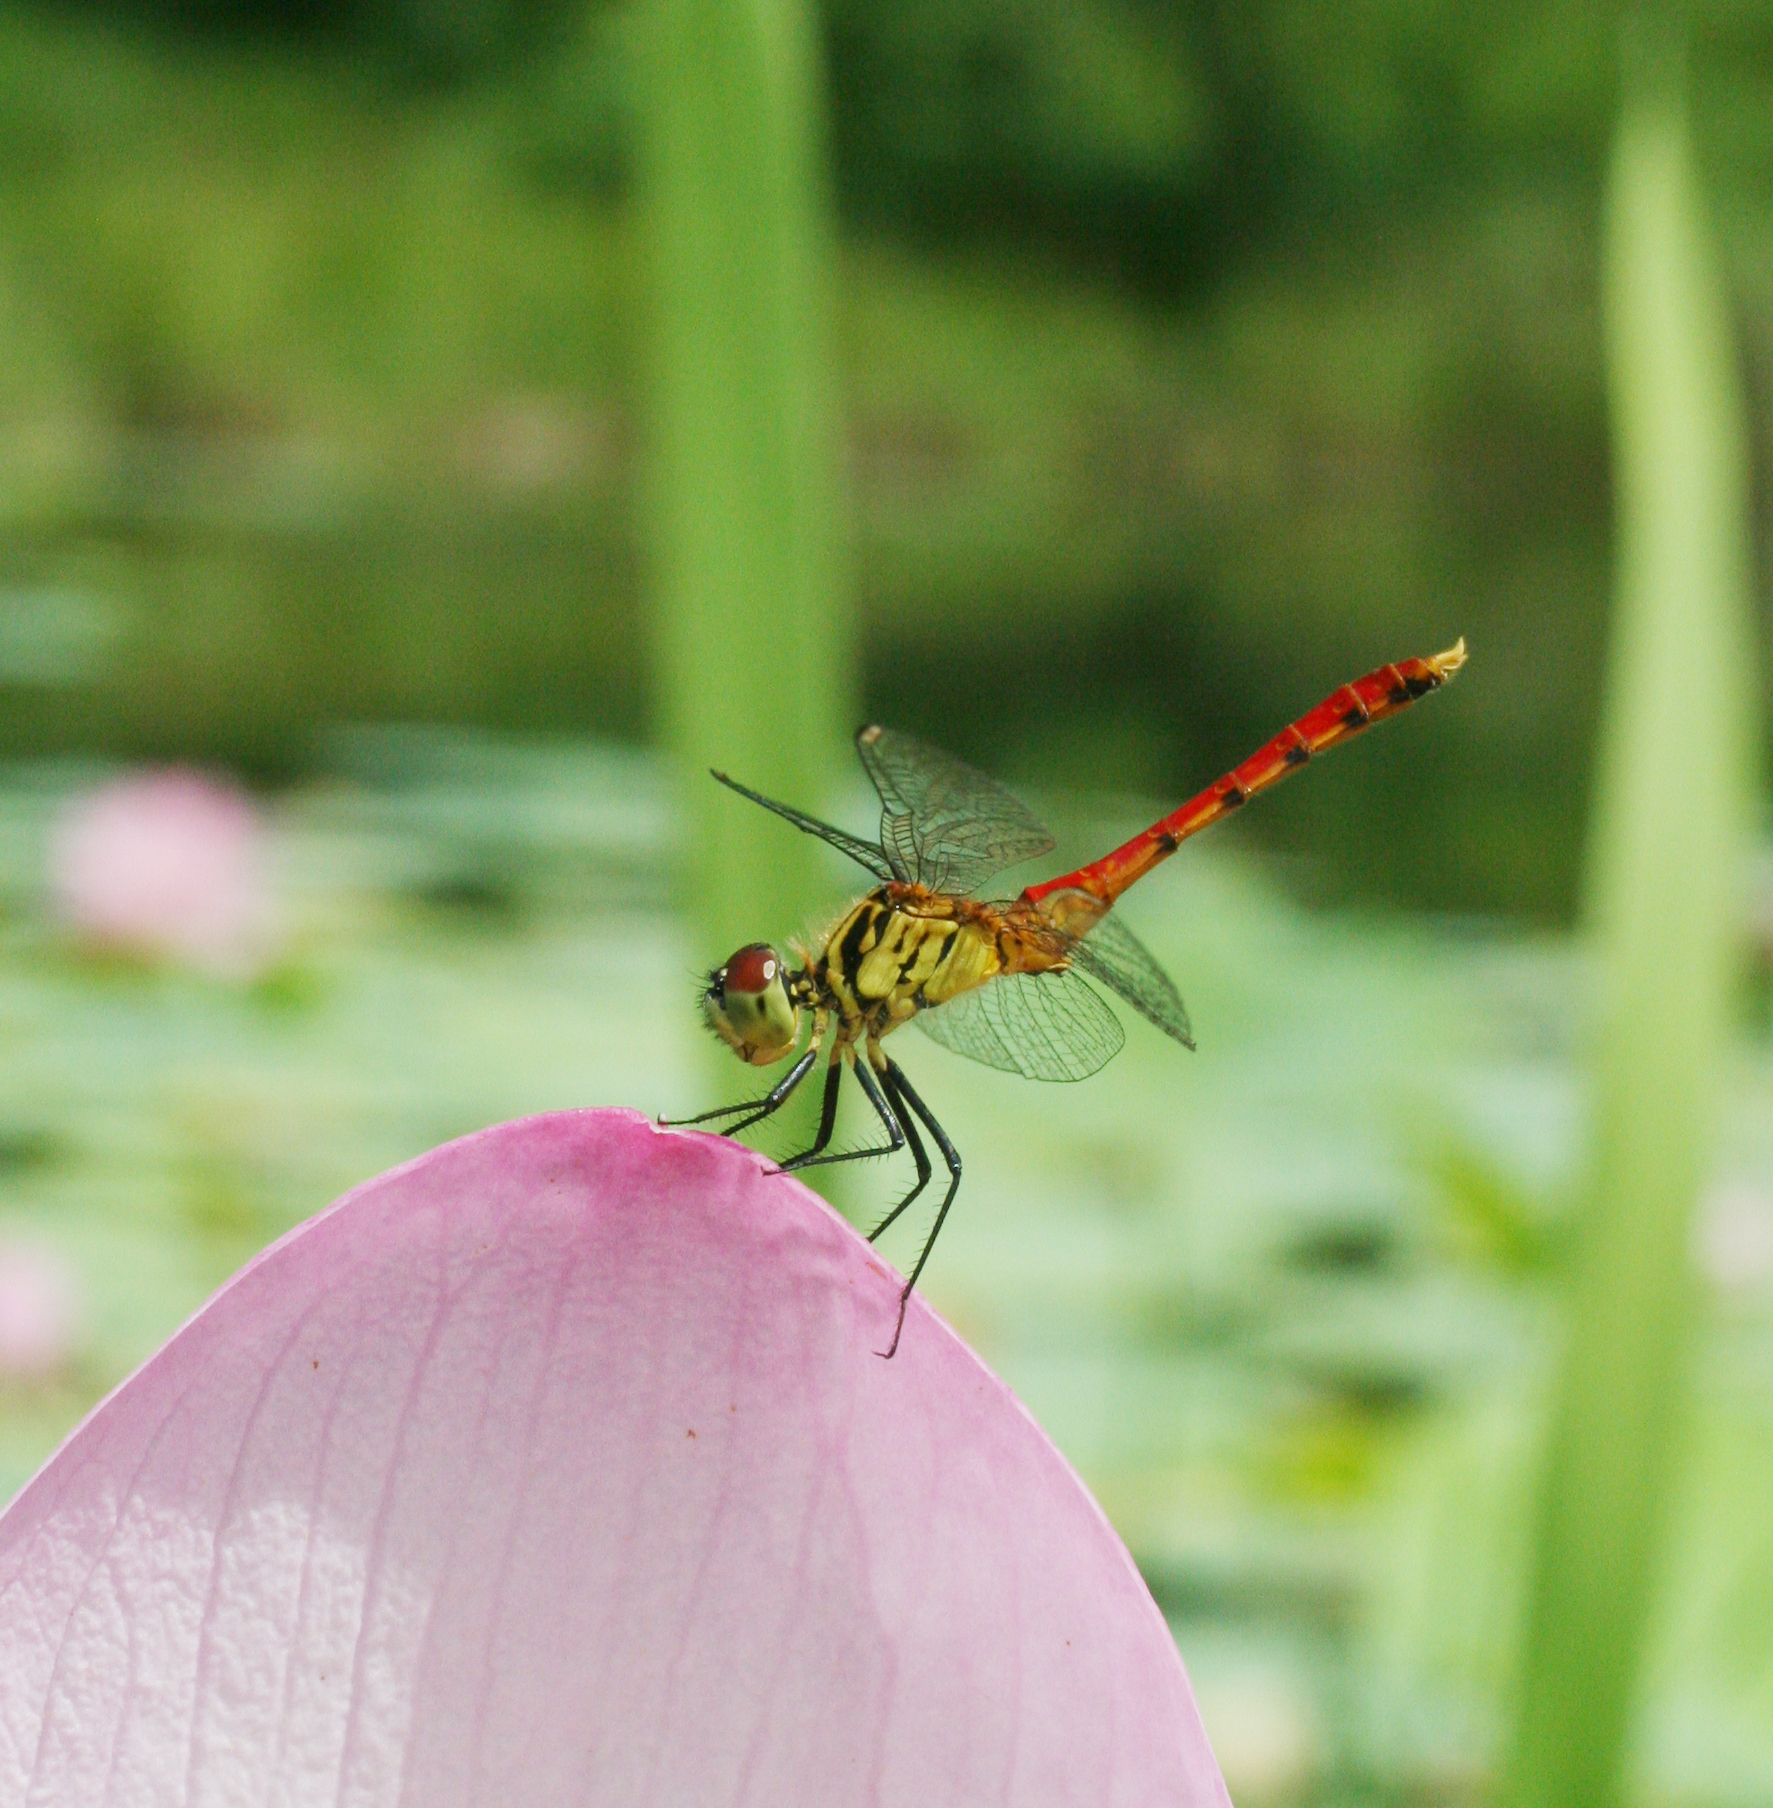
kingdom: Animalia
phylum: Arthropoda
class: Insecta
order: Odonata
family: Libellulidae
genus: Sympetrum
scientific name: Sympetrum kunckeli
